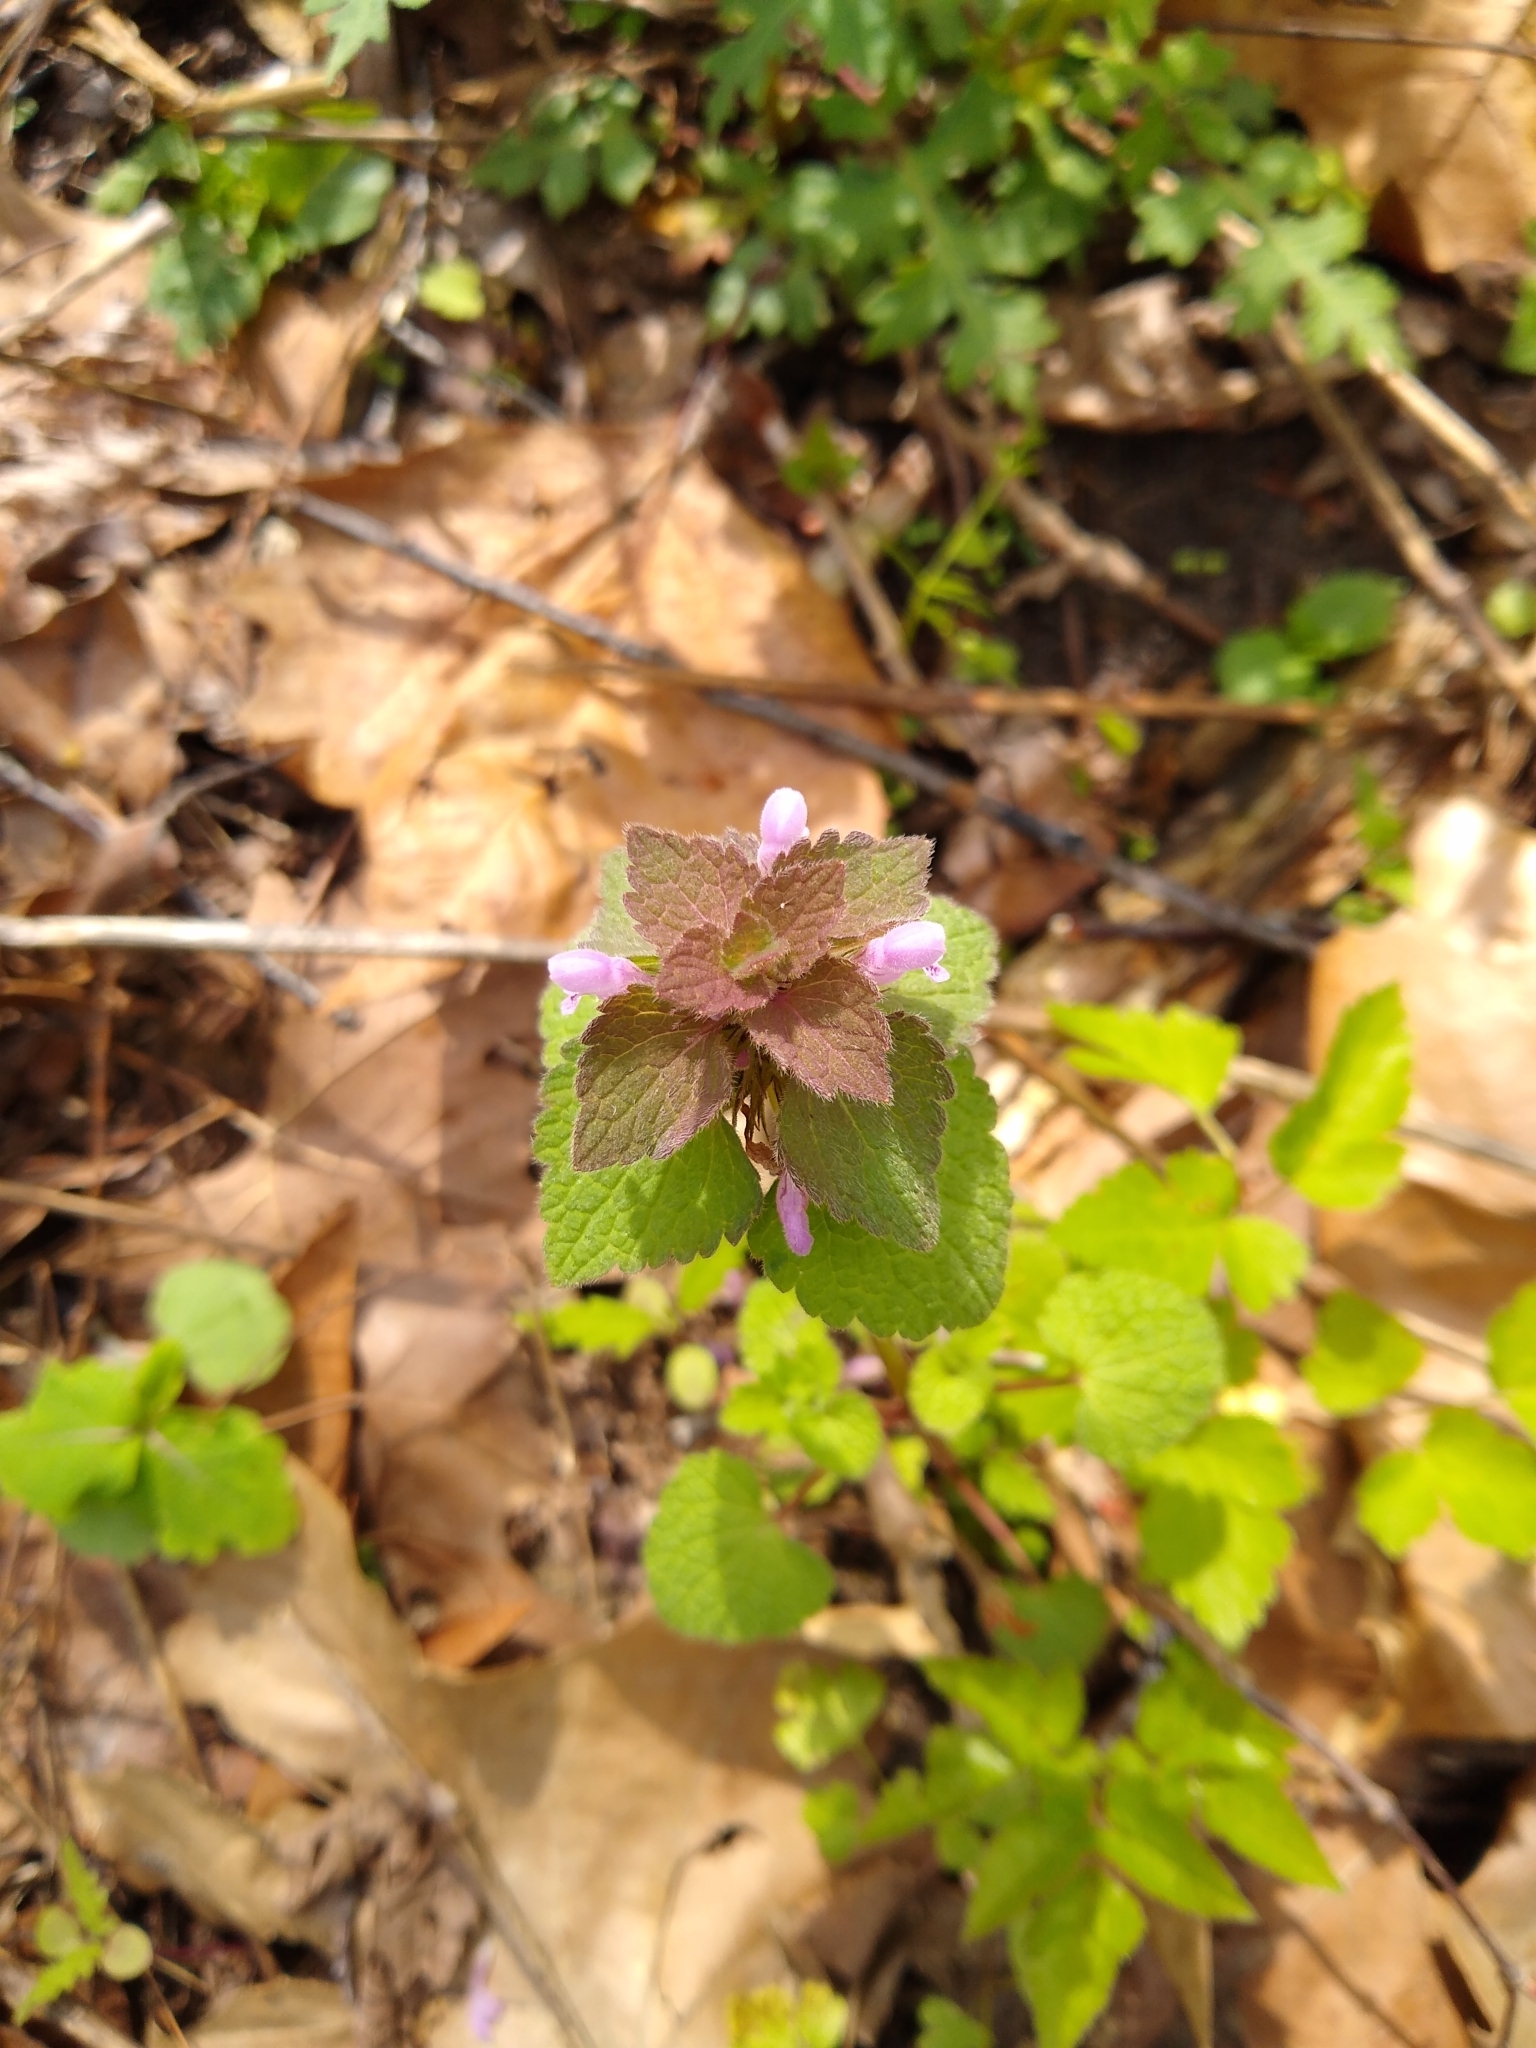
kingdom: Plantae
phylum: Tracheophyta
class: Magnoliopsida
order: Lamiales
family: Lamiaceae
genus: Lamium
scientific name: Lamium purpureum
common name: Red dead-nettle
